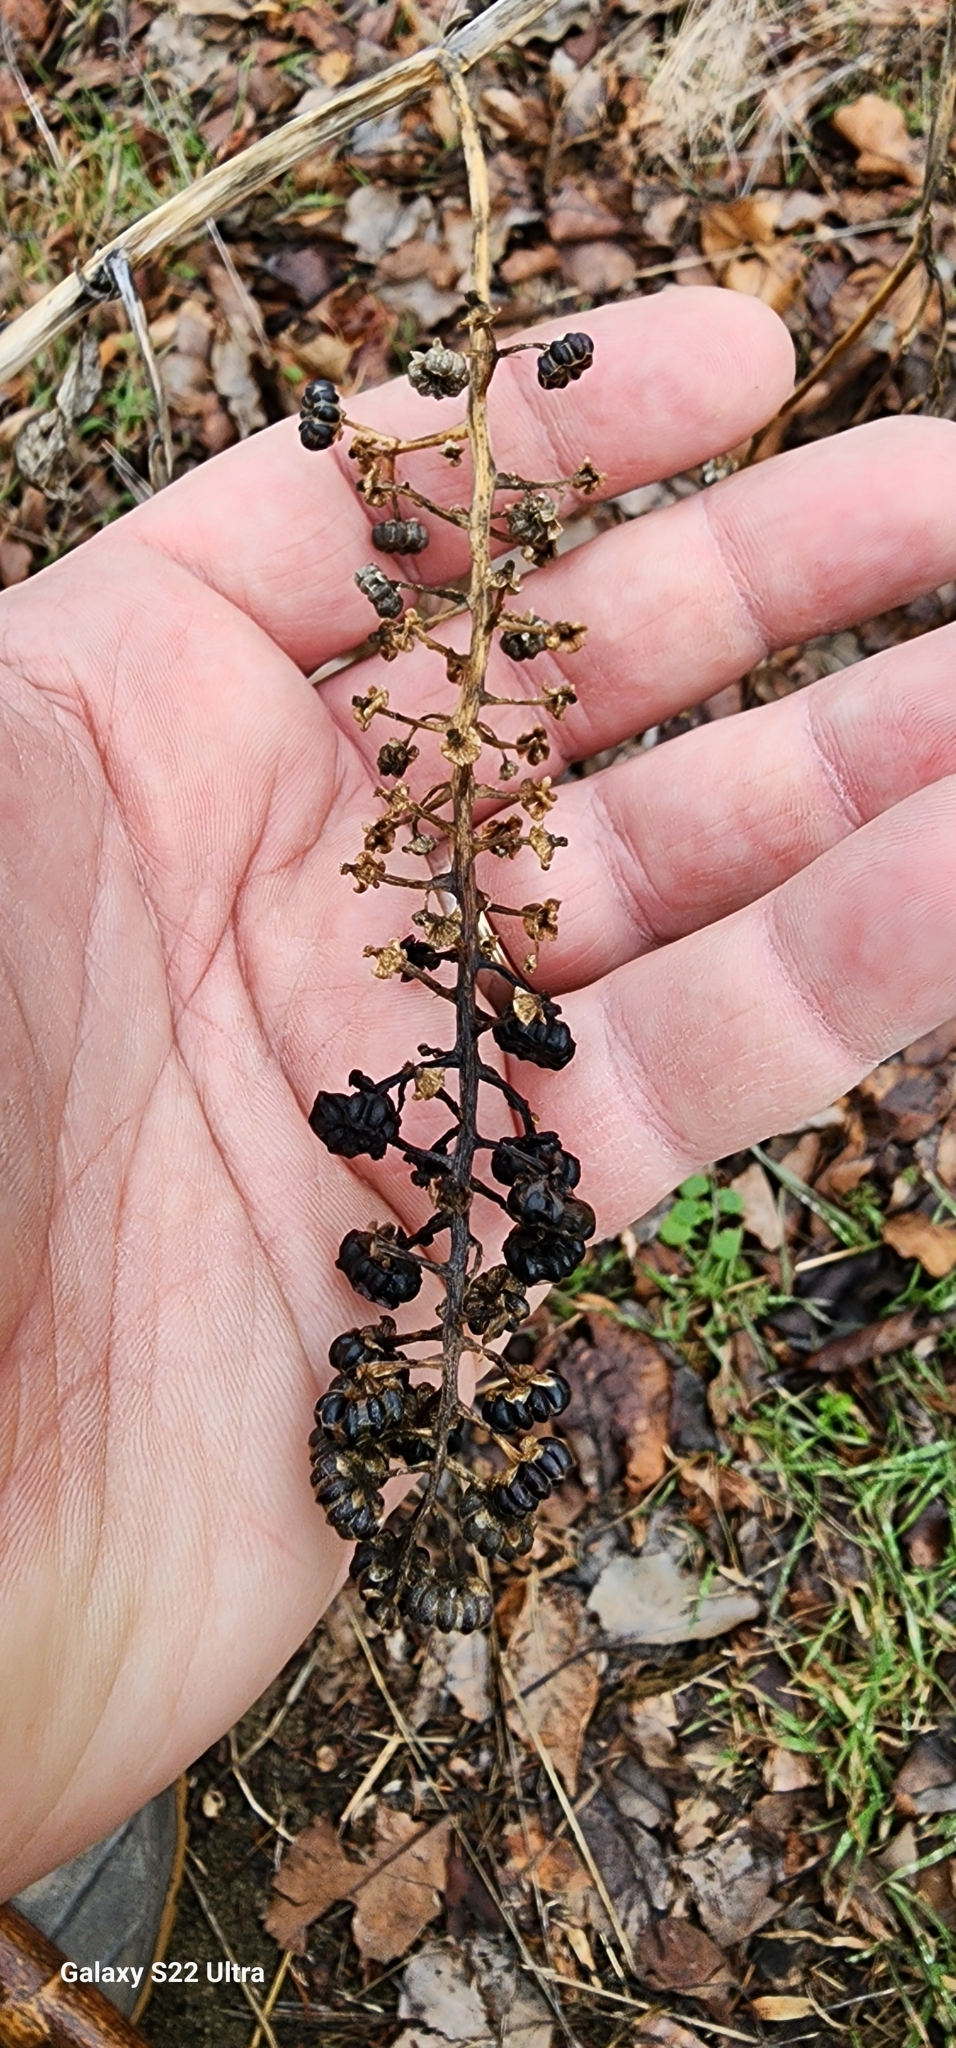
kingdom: Plantae
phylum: Tracheophyta
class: Magnoliopsida
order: Caryophyllales
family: Phytolaccaceae
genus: Phytolacca
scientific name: Phytolacca americana
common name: American pokeweed
